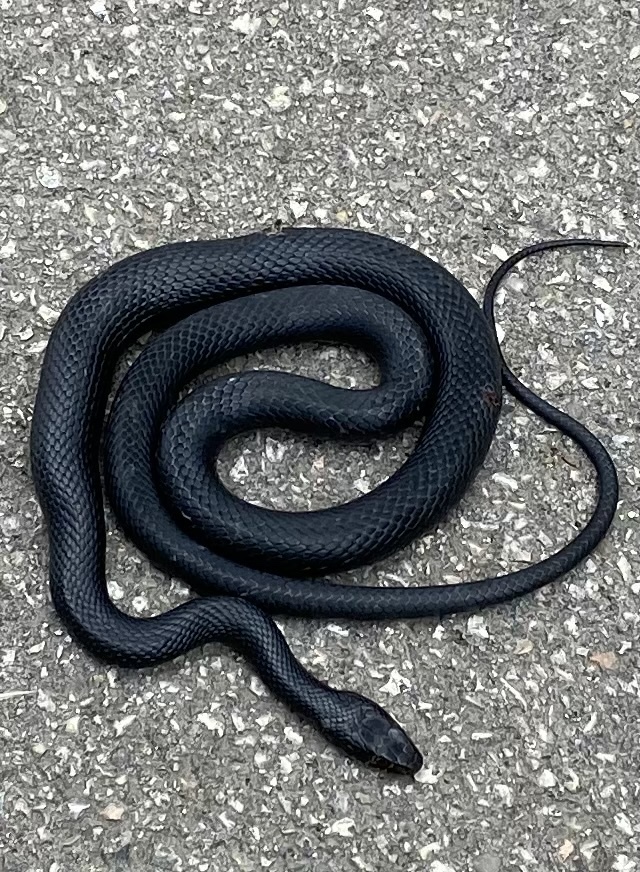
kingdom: Animalia
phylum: Chordata
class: Squamata
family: Colubridae
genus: Hierophis
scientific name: Hierophis viridiflavus
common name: Green whip snake
